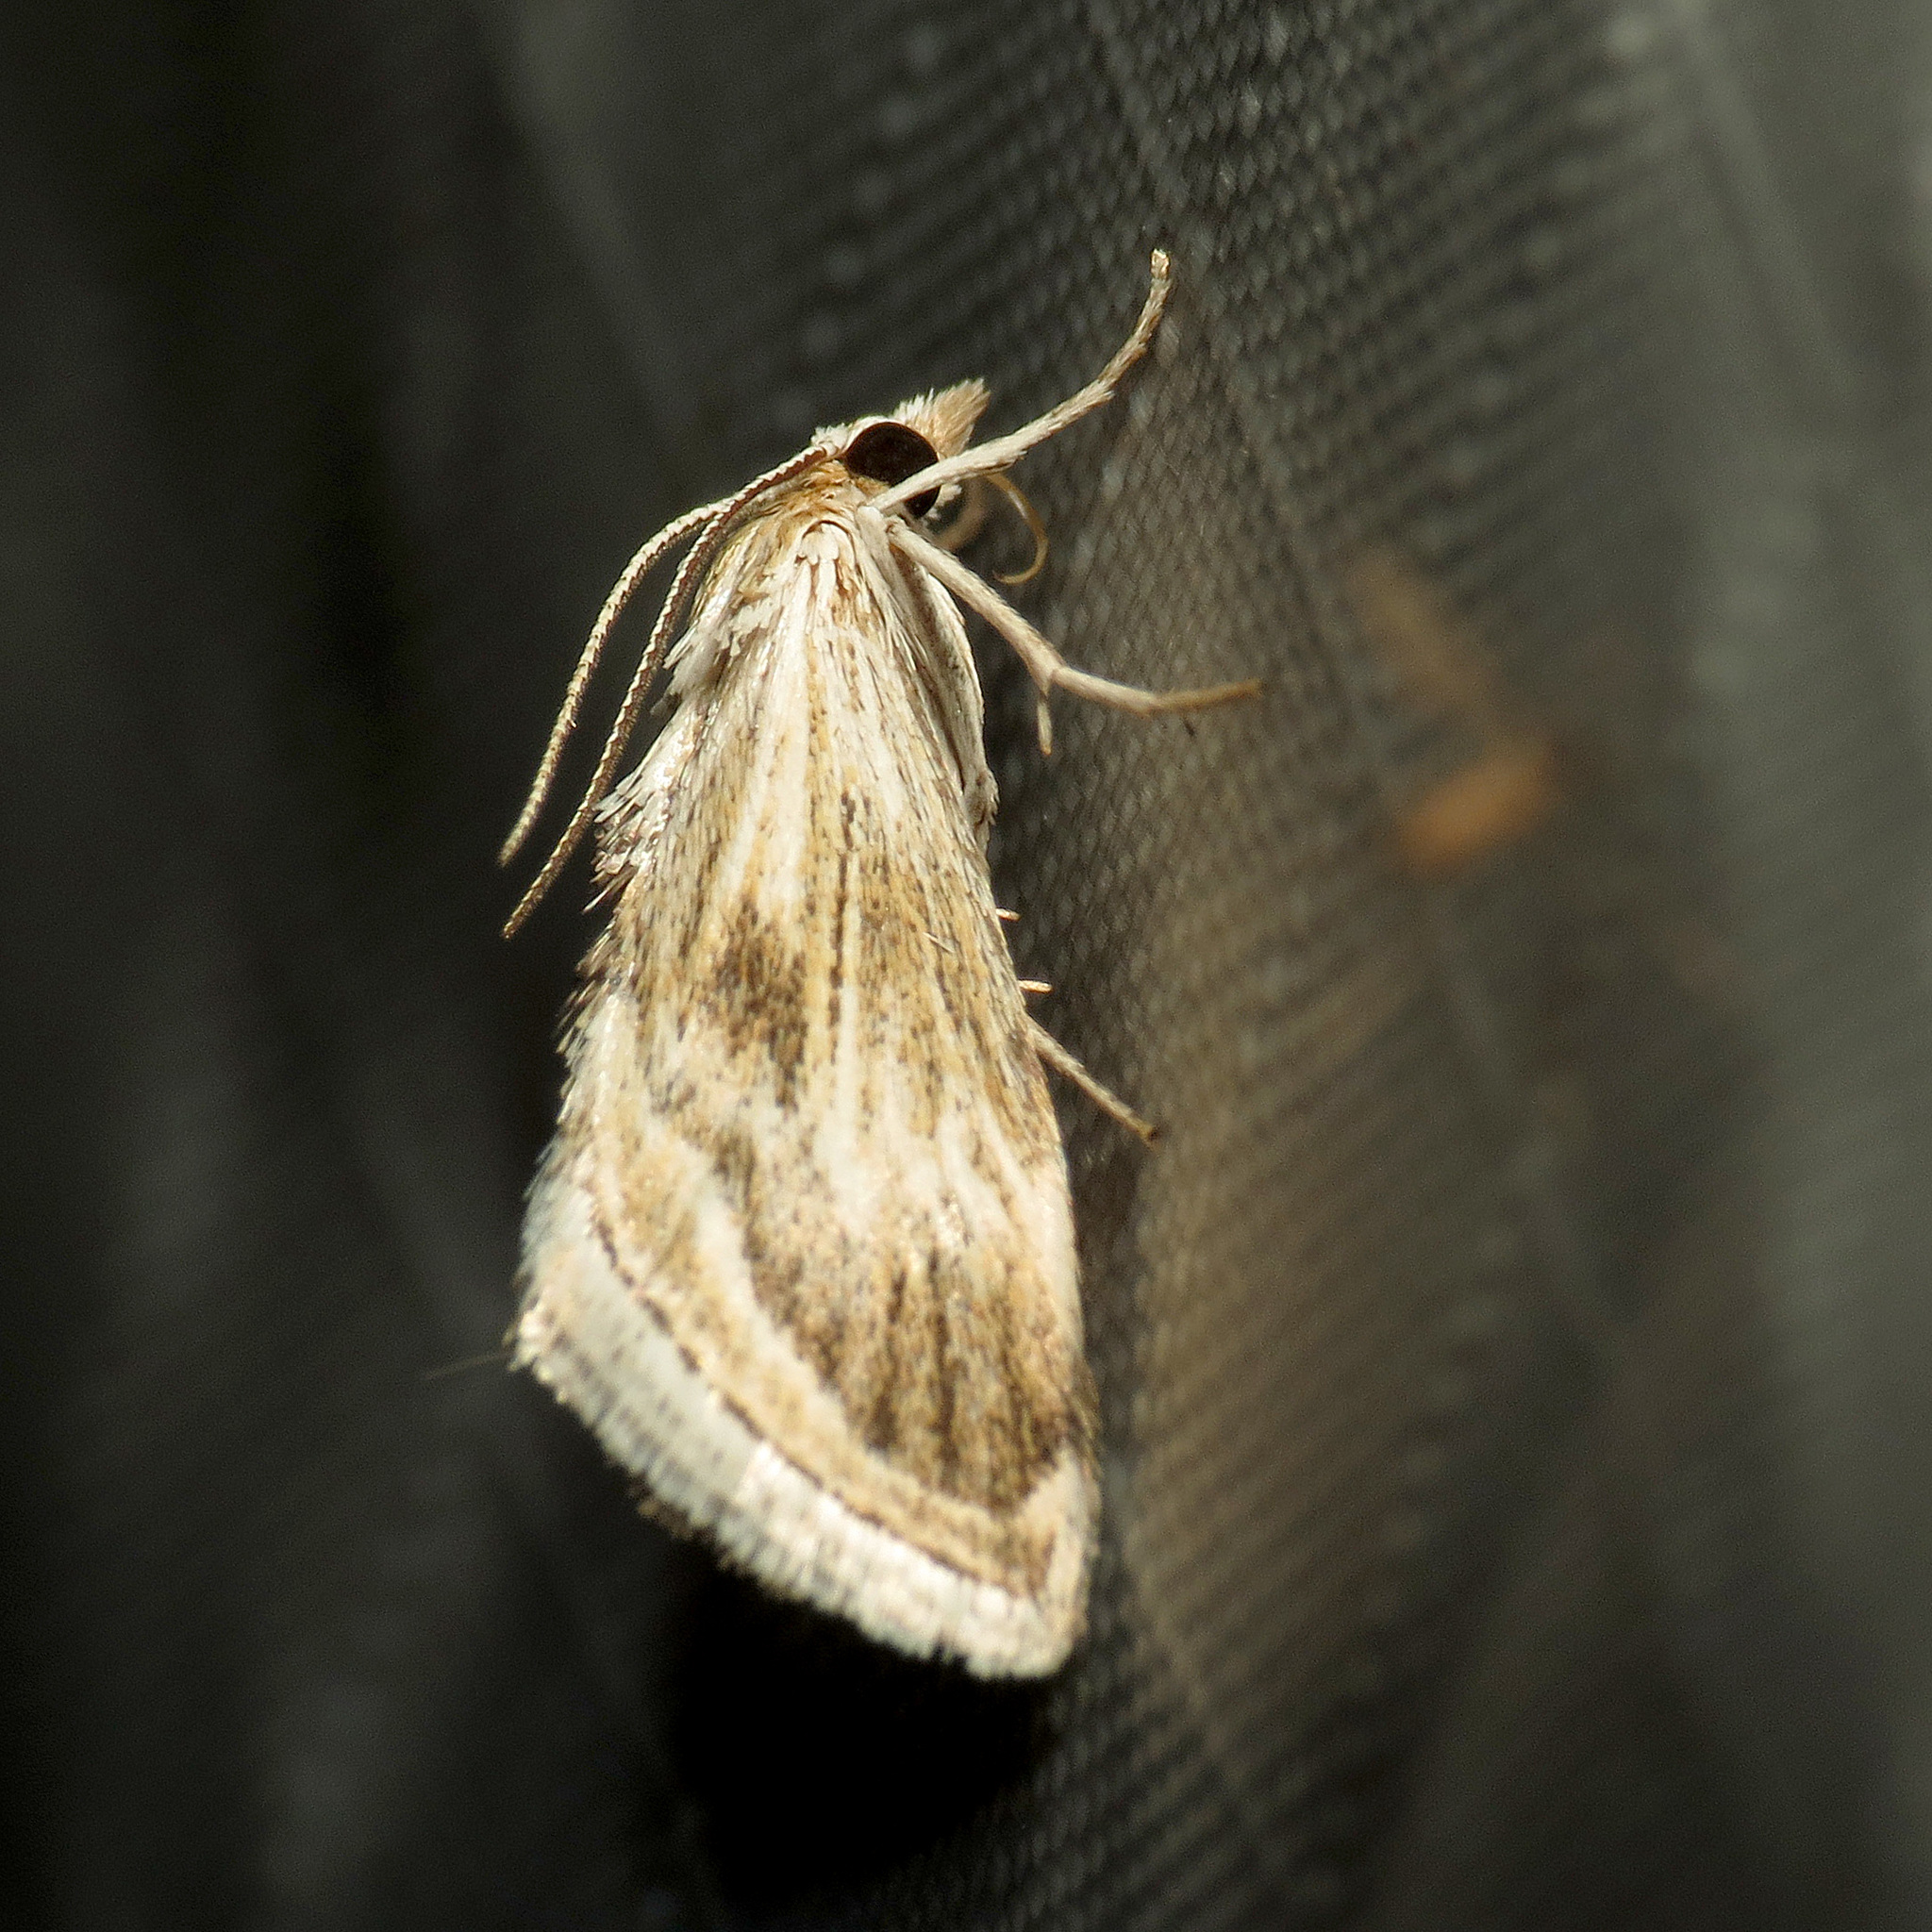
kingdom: Animalia
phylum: Arthropoda
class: Insecta
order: Lepidoptera
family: Crambidae
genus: Frechinia
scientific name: Frechinia helianthiales
